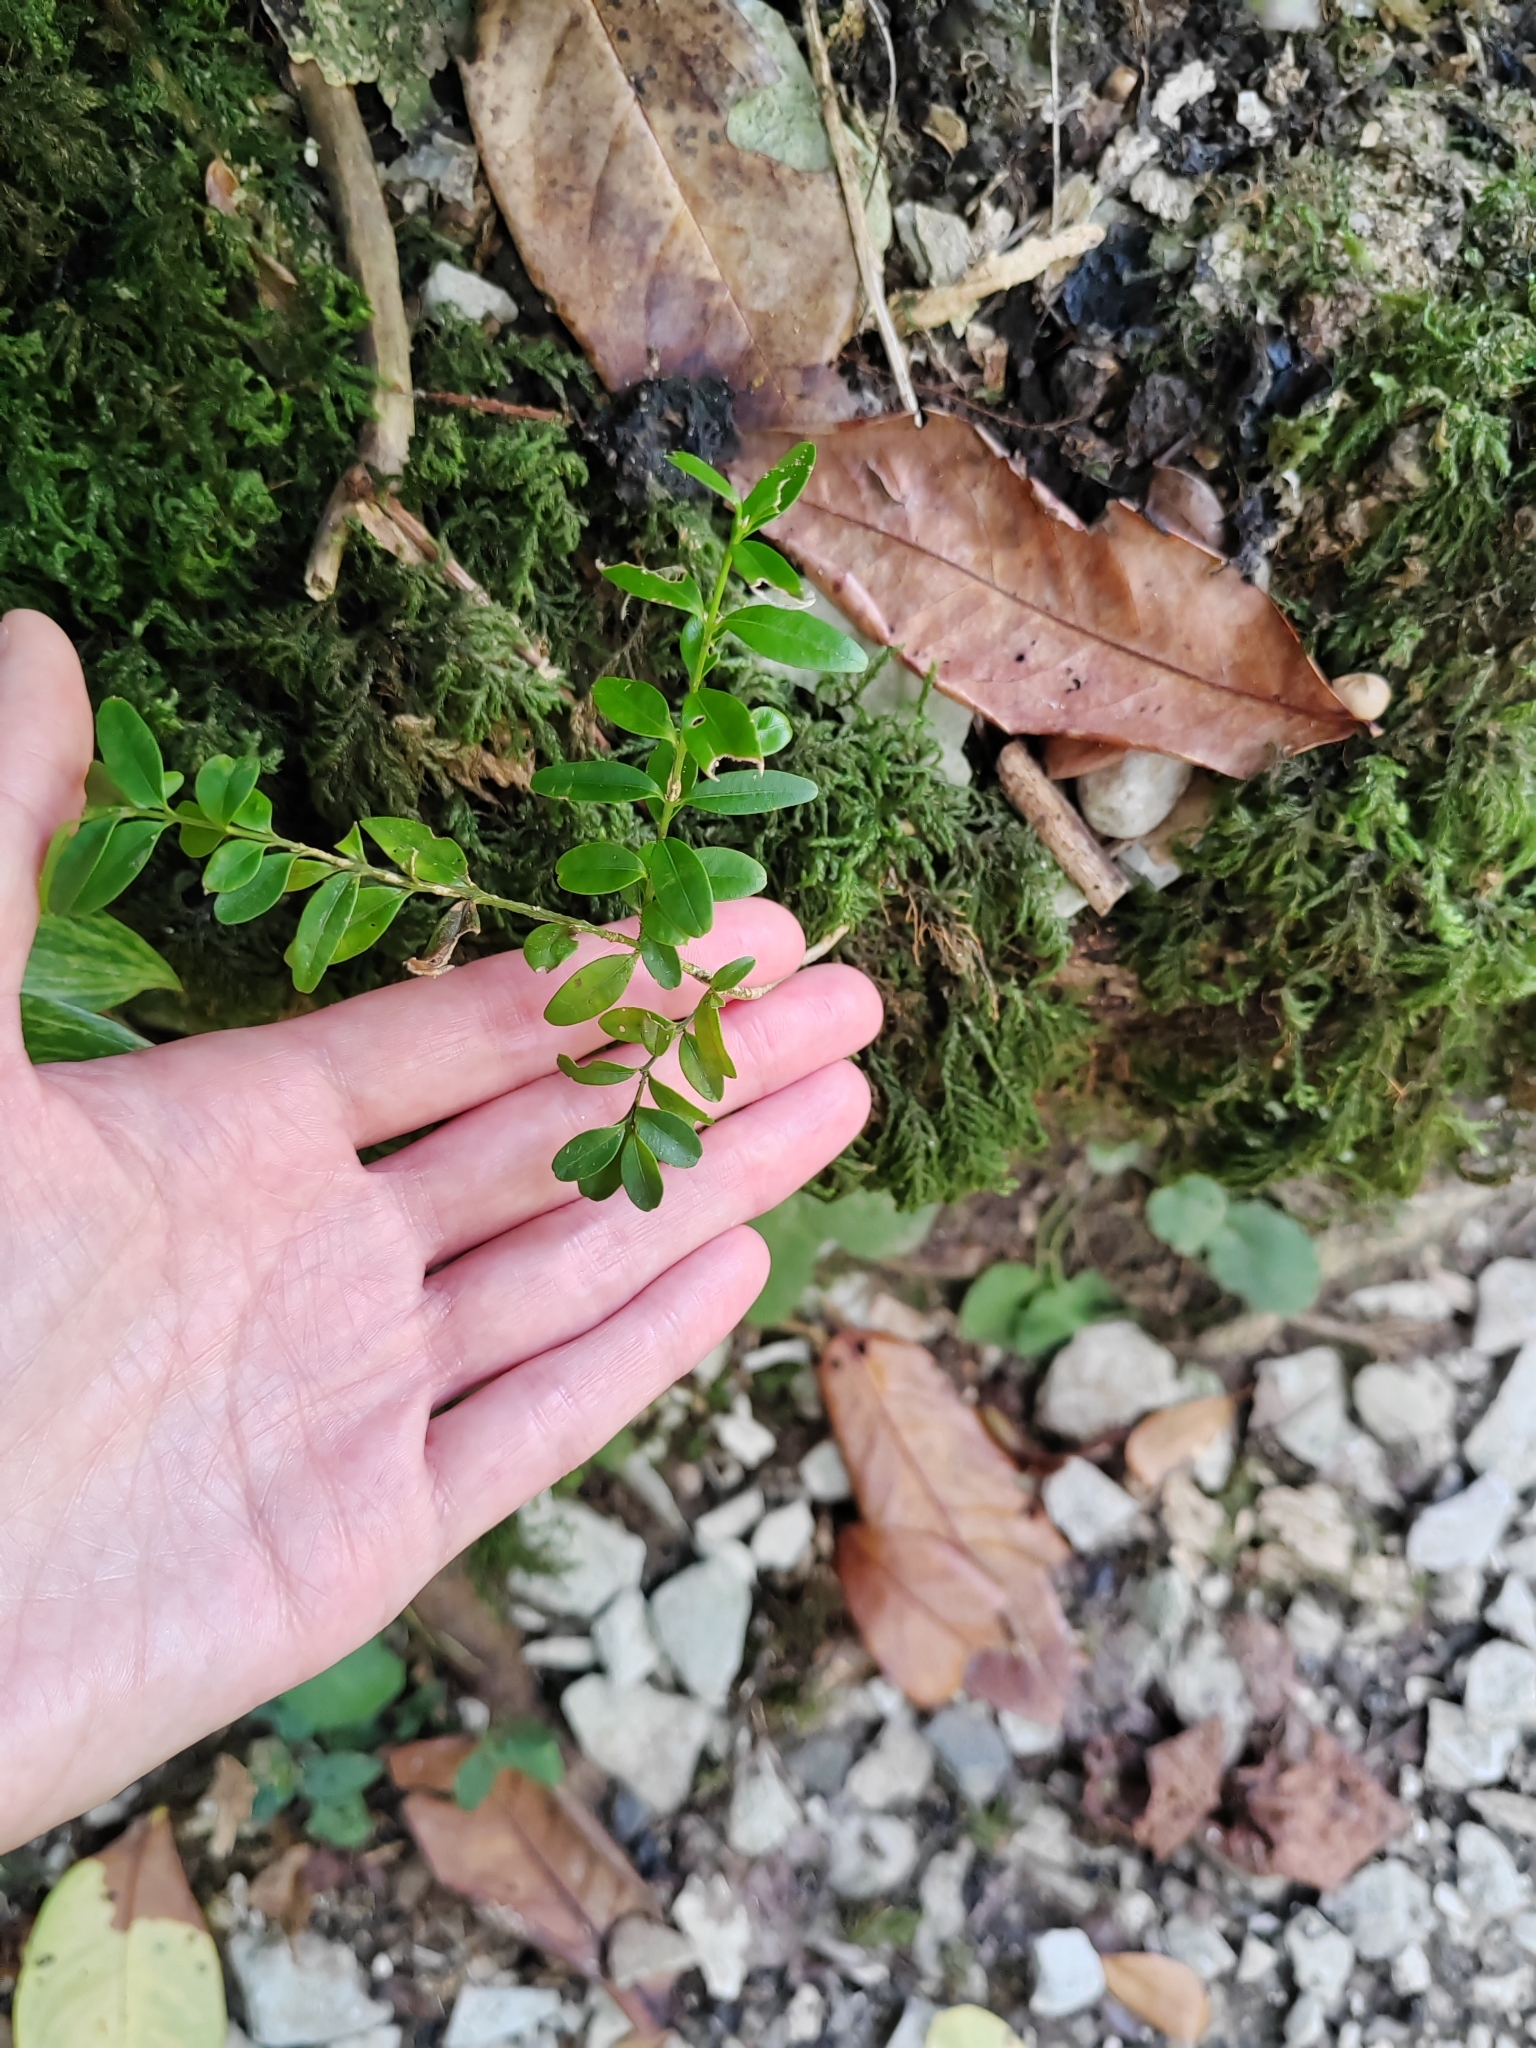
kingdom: Plantae
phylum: Tracheophyta
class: Magnoliopsida
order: Buxales
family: Buxaceae
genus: Buxus
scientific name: Buxus sempervirens
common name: Box
